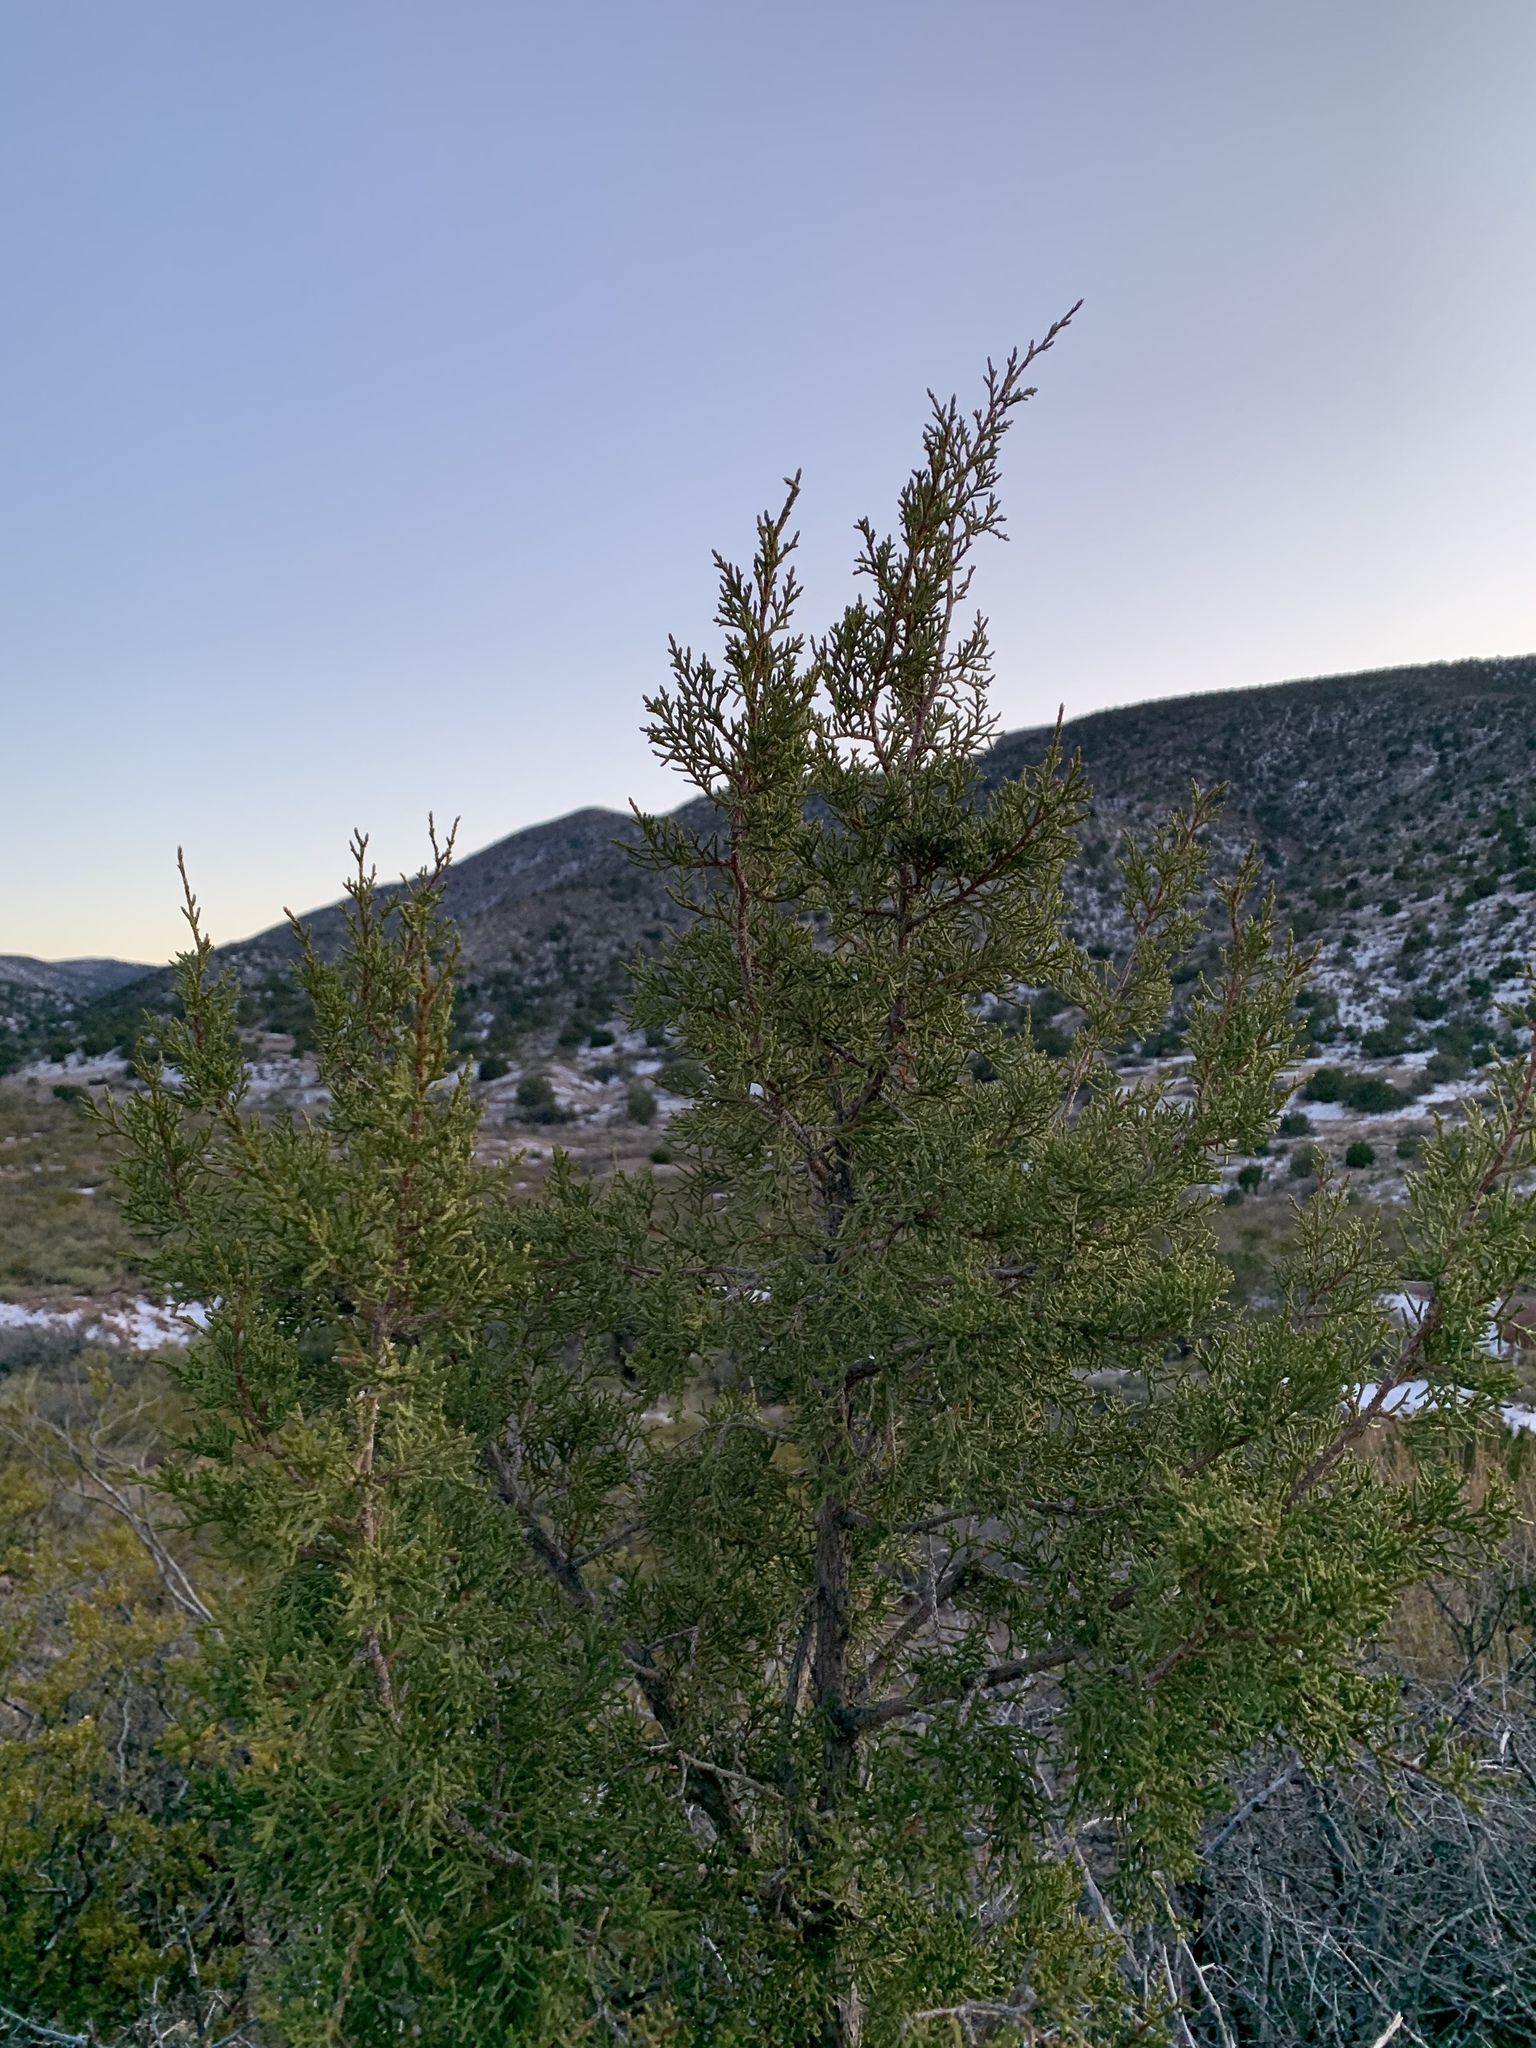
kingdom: Plantae
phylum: Tracheophyta
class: Pinopsida
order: Pinales
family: Cupressaceae
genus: Juniperus
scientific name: Juniperus monosperma
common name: One-seed juniper
